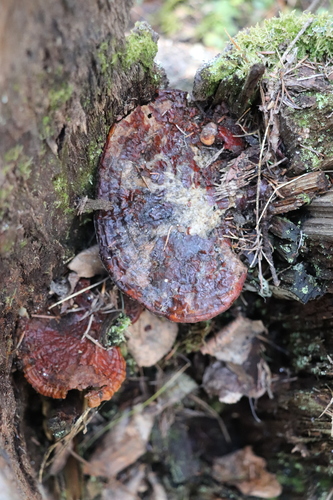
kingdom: Fungi
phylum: Basidiomycota
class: Agaricomycetes
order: Polyporales
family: Polyporaceae
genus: Ganoderma
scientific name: Ganoderma lucidum
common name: Lacquered bracket
